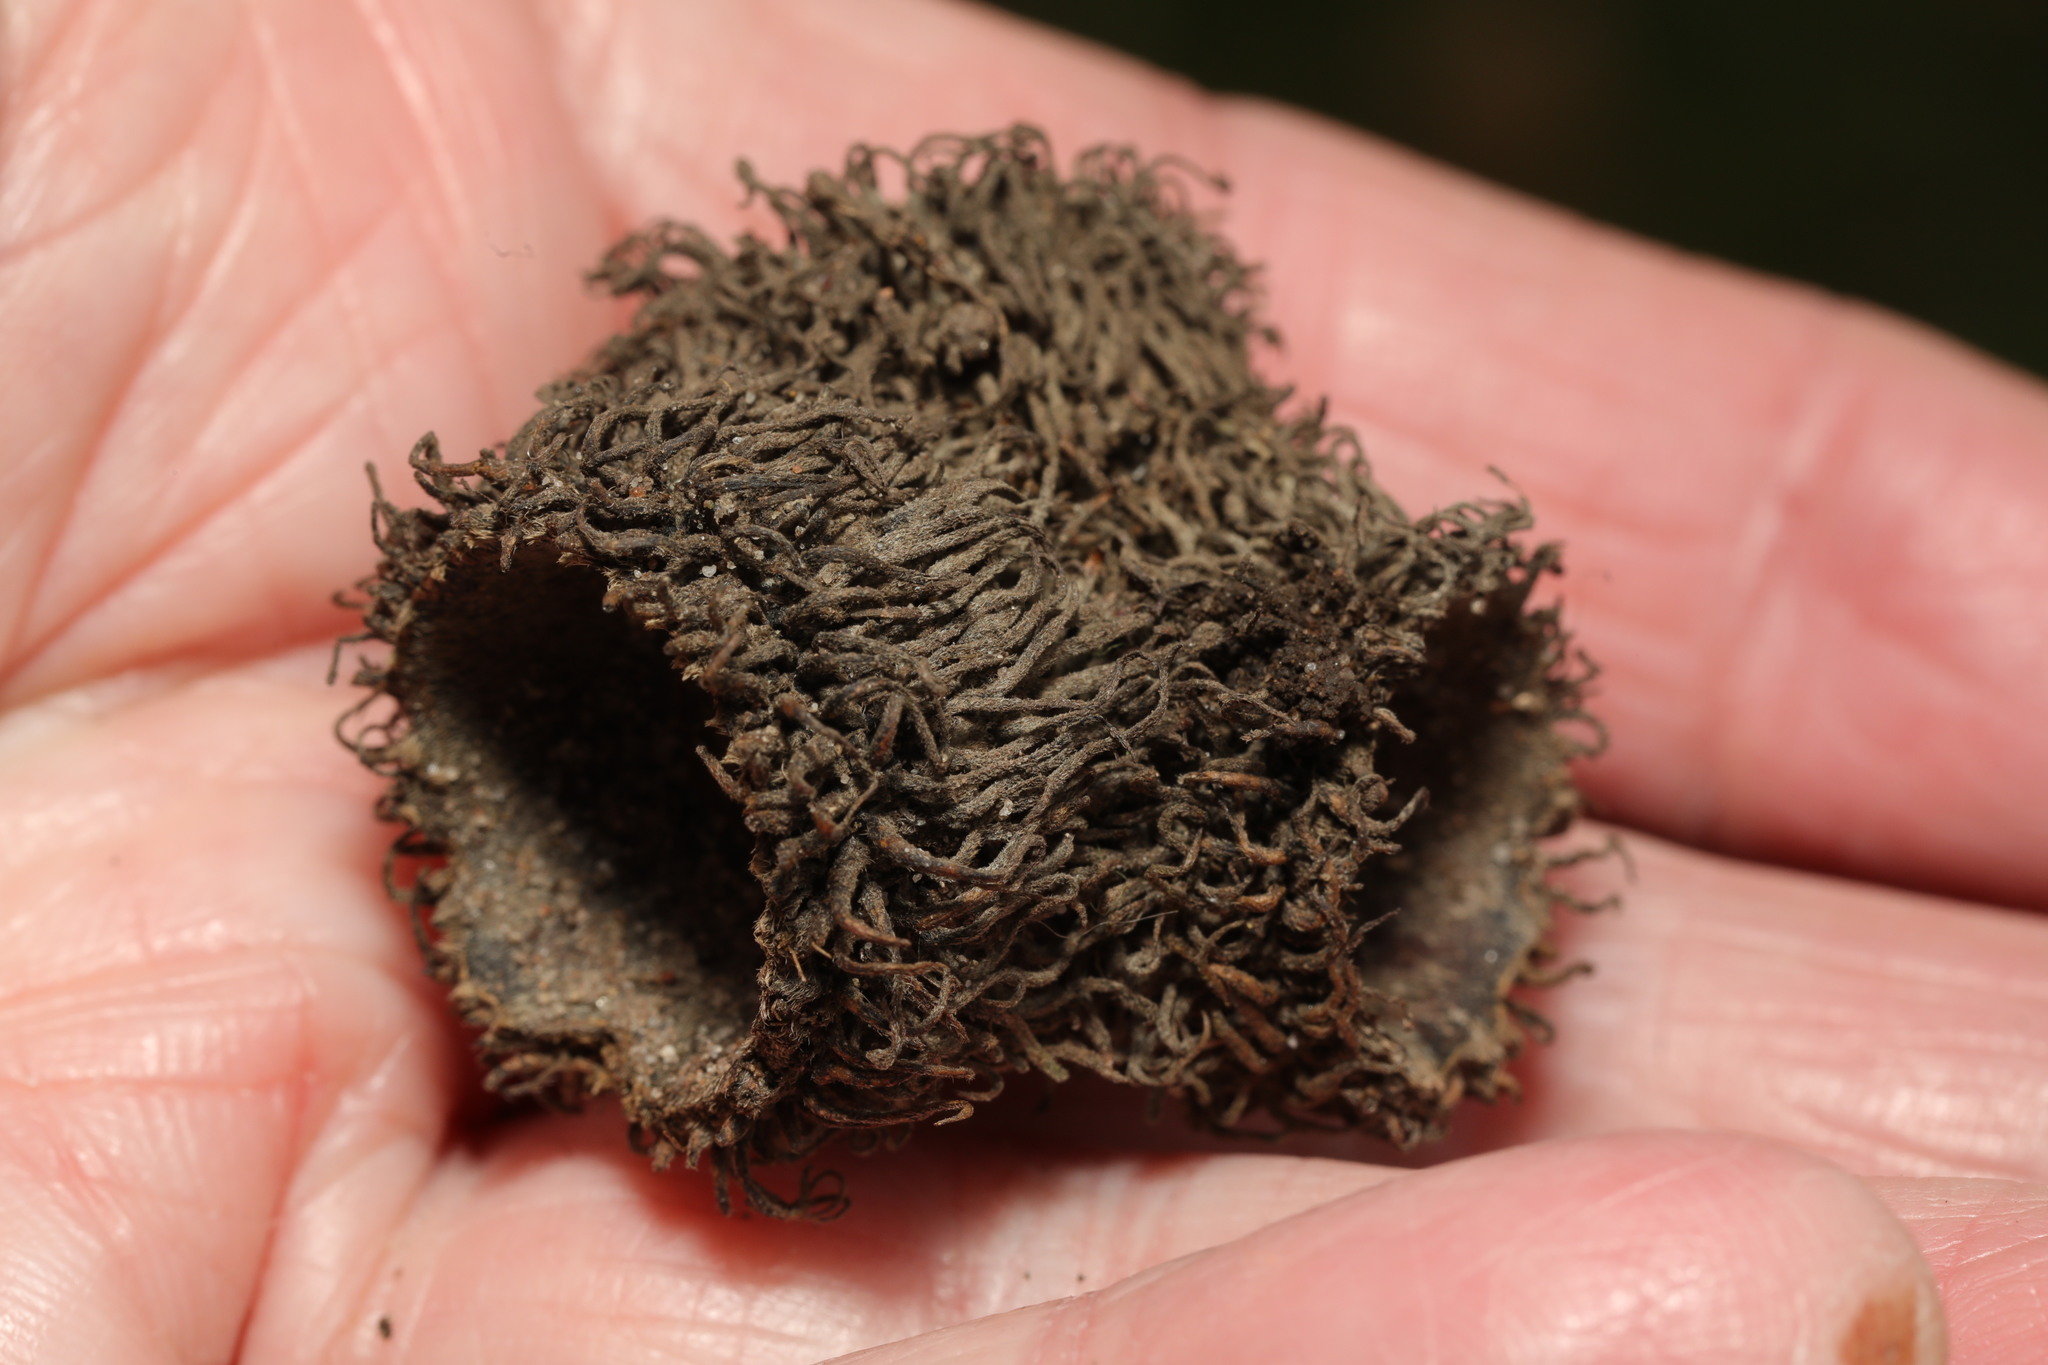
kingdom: Plantae
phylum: Tracheophyta
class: Magnoliopsida
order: Fagales
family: Fagaceae
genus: Quercus
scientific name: Quercus cerris
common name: Turkey oak
